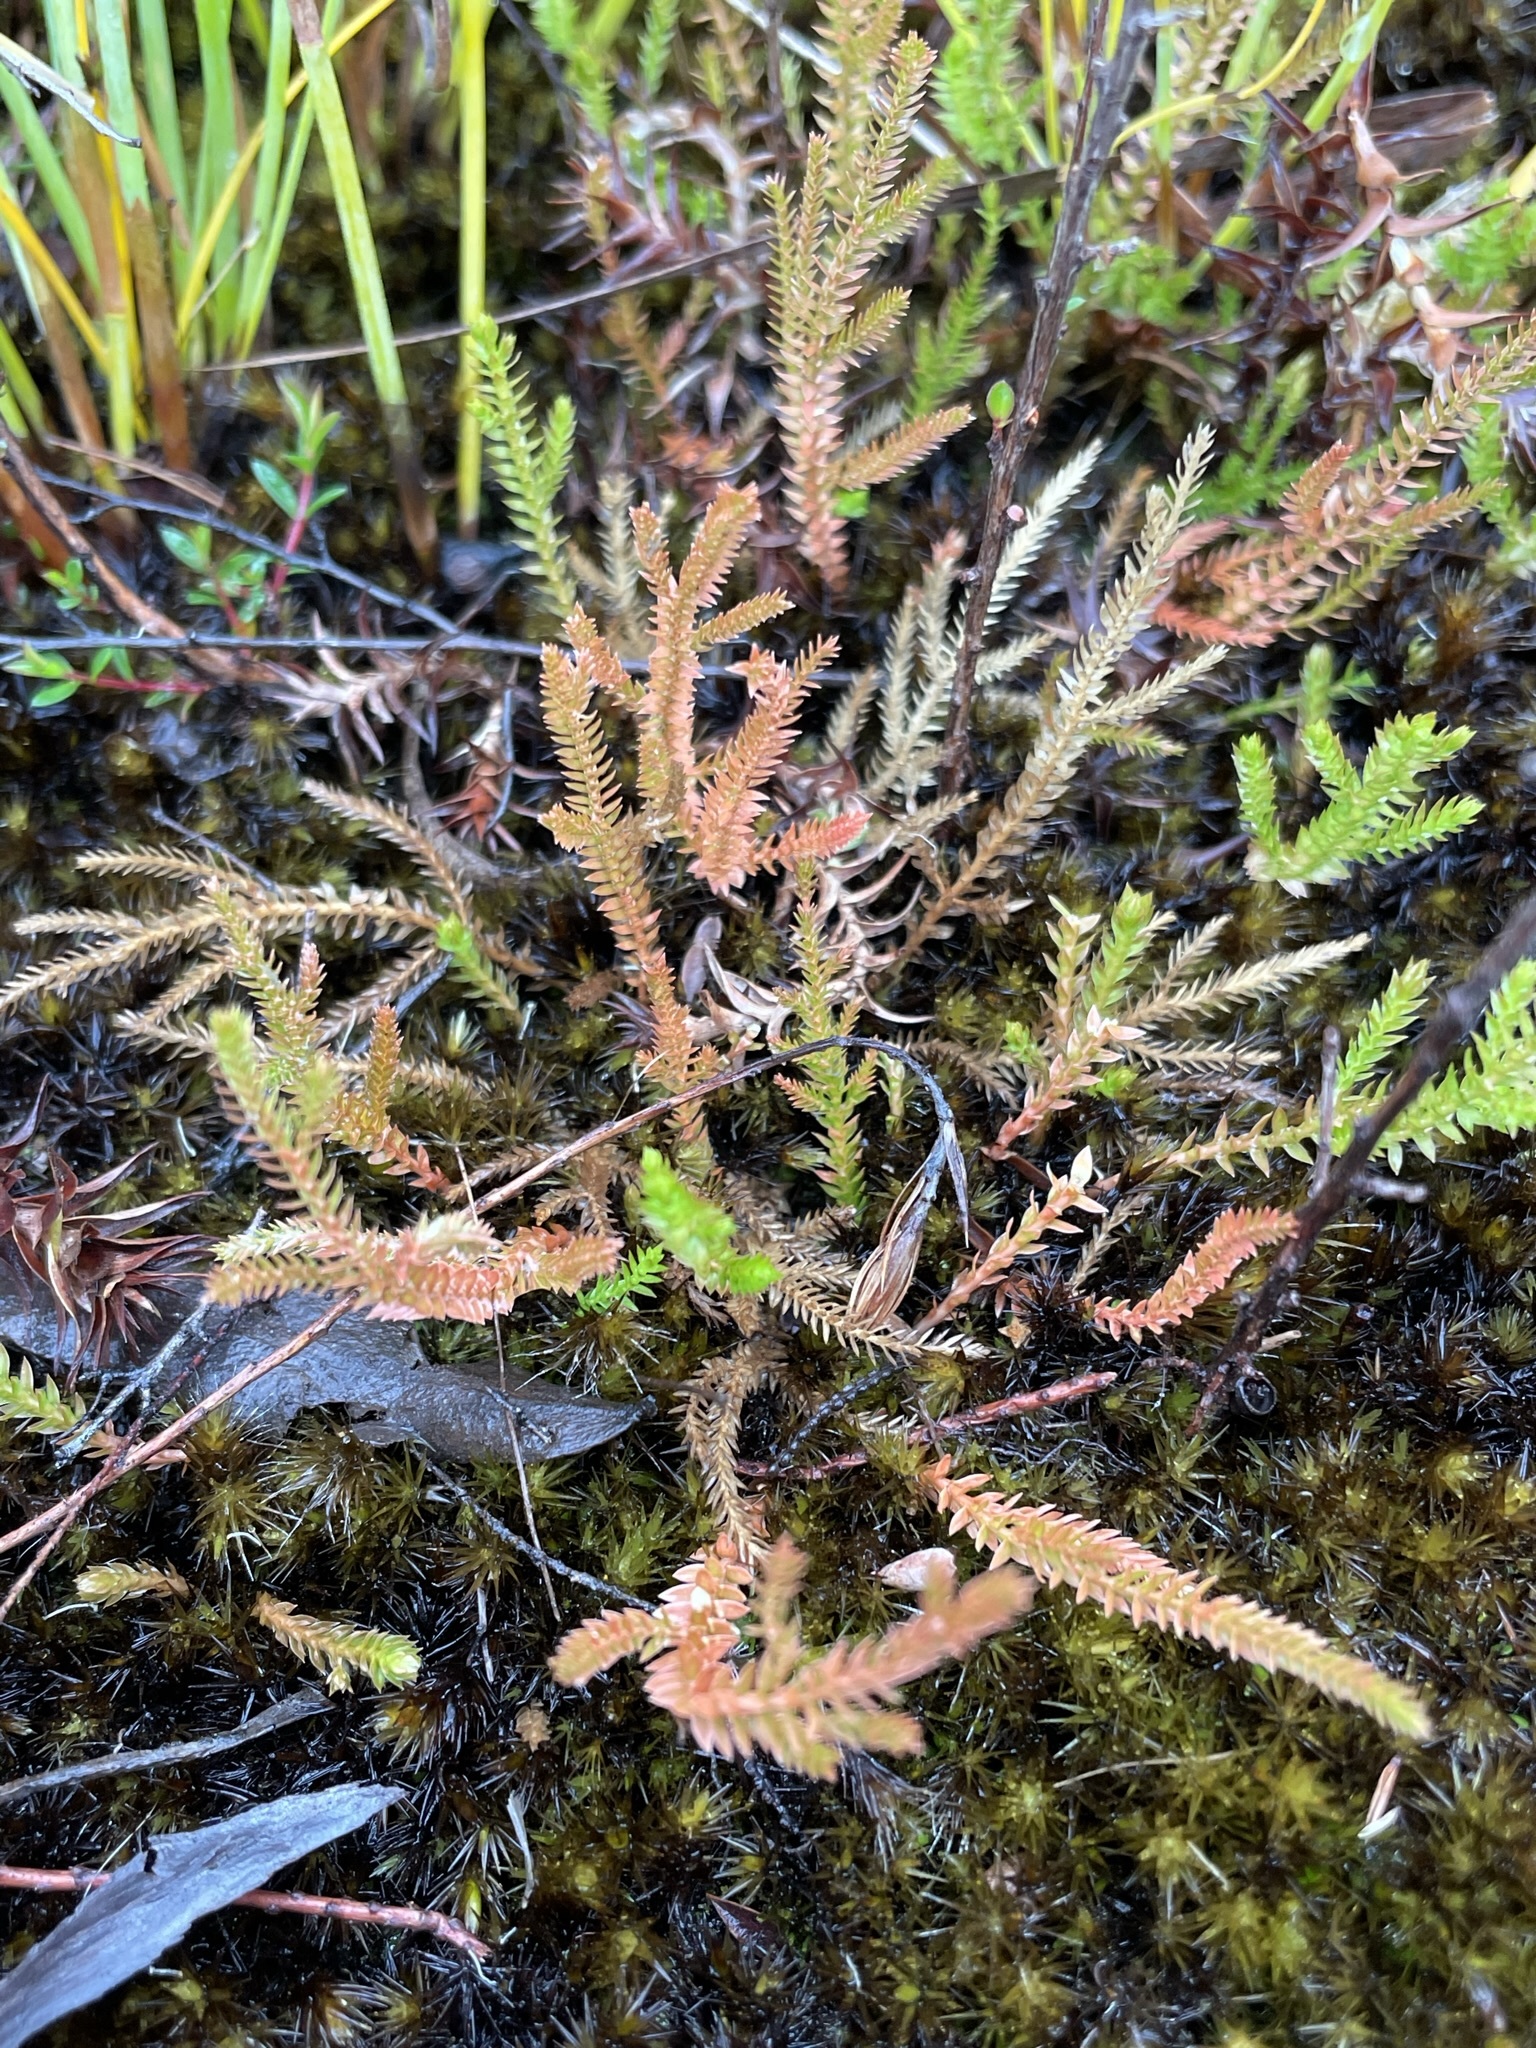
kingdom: Plantae
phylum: Tracheophyta
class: Lycopodiopsida
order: Selaginellales
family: Selaginellaceae
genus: Selaginella
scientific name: Selaginella uliginosa
